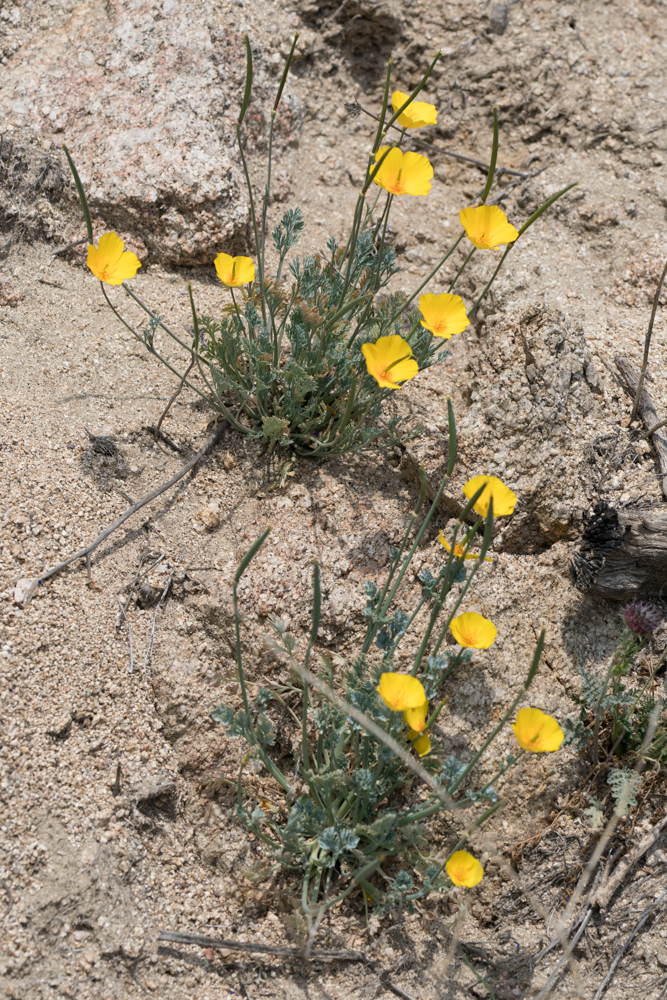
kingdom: Plantae
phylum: Tracheophyta
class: Magnoliopsida
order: Ranunculales
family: Papaveraceae
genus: Eschscholzia
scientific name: Eschscholzia californica
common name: California poppy
